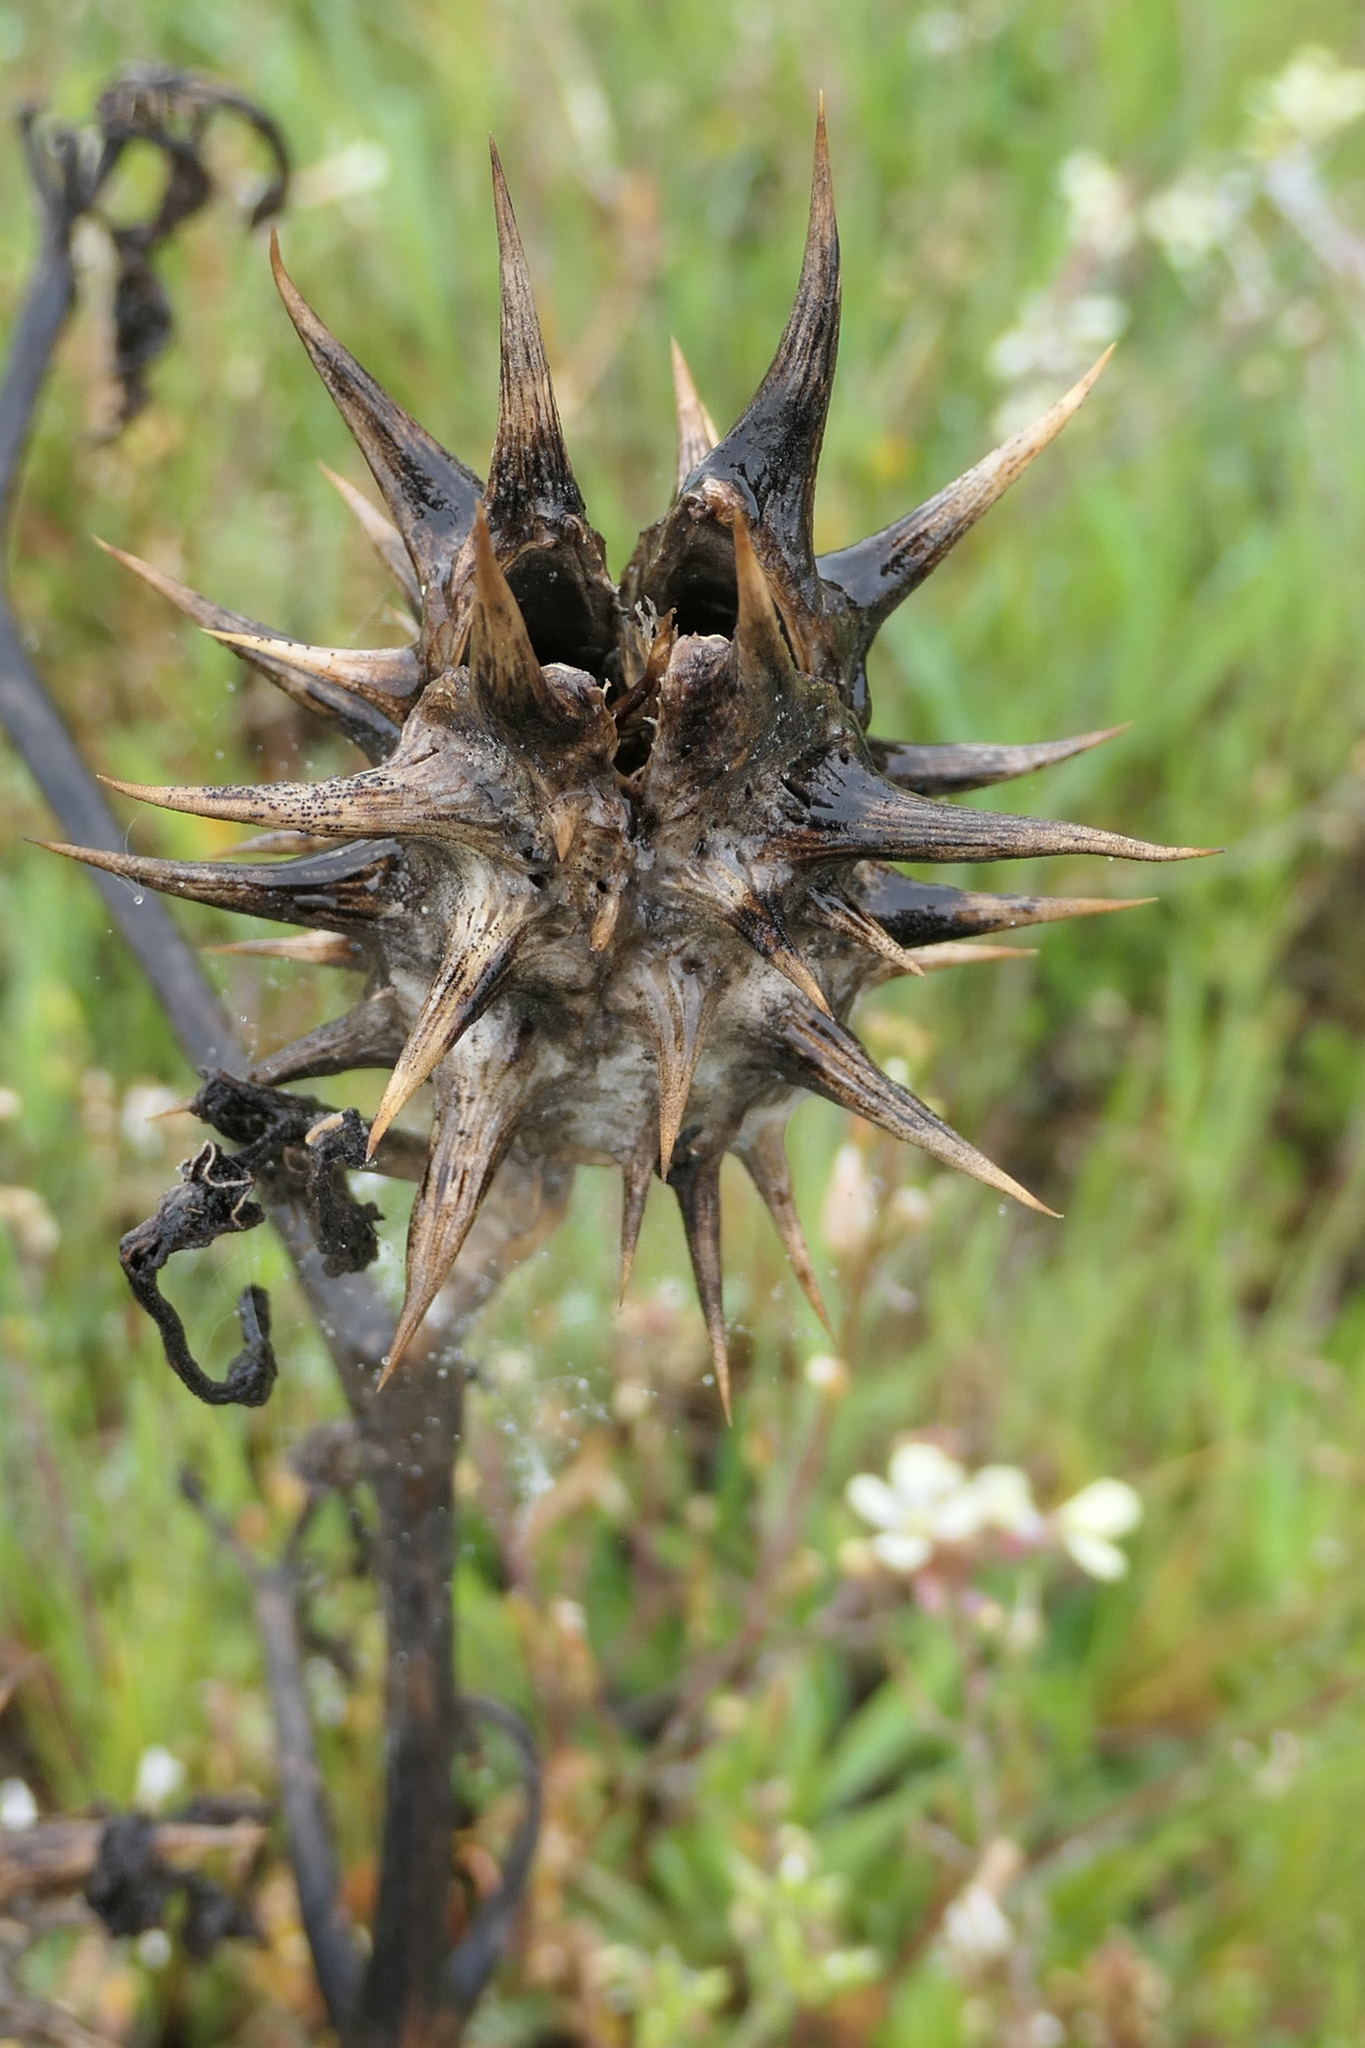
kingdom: Plantae
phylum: Tracheophyta
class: Magnoliopsida
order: Solanales
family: Solanaceae
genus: Datura
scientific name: Datura ferox
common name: Angel's-trumpets
